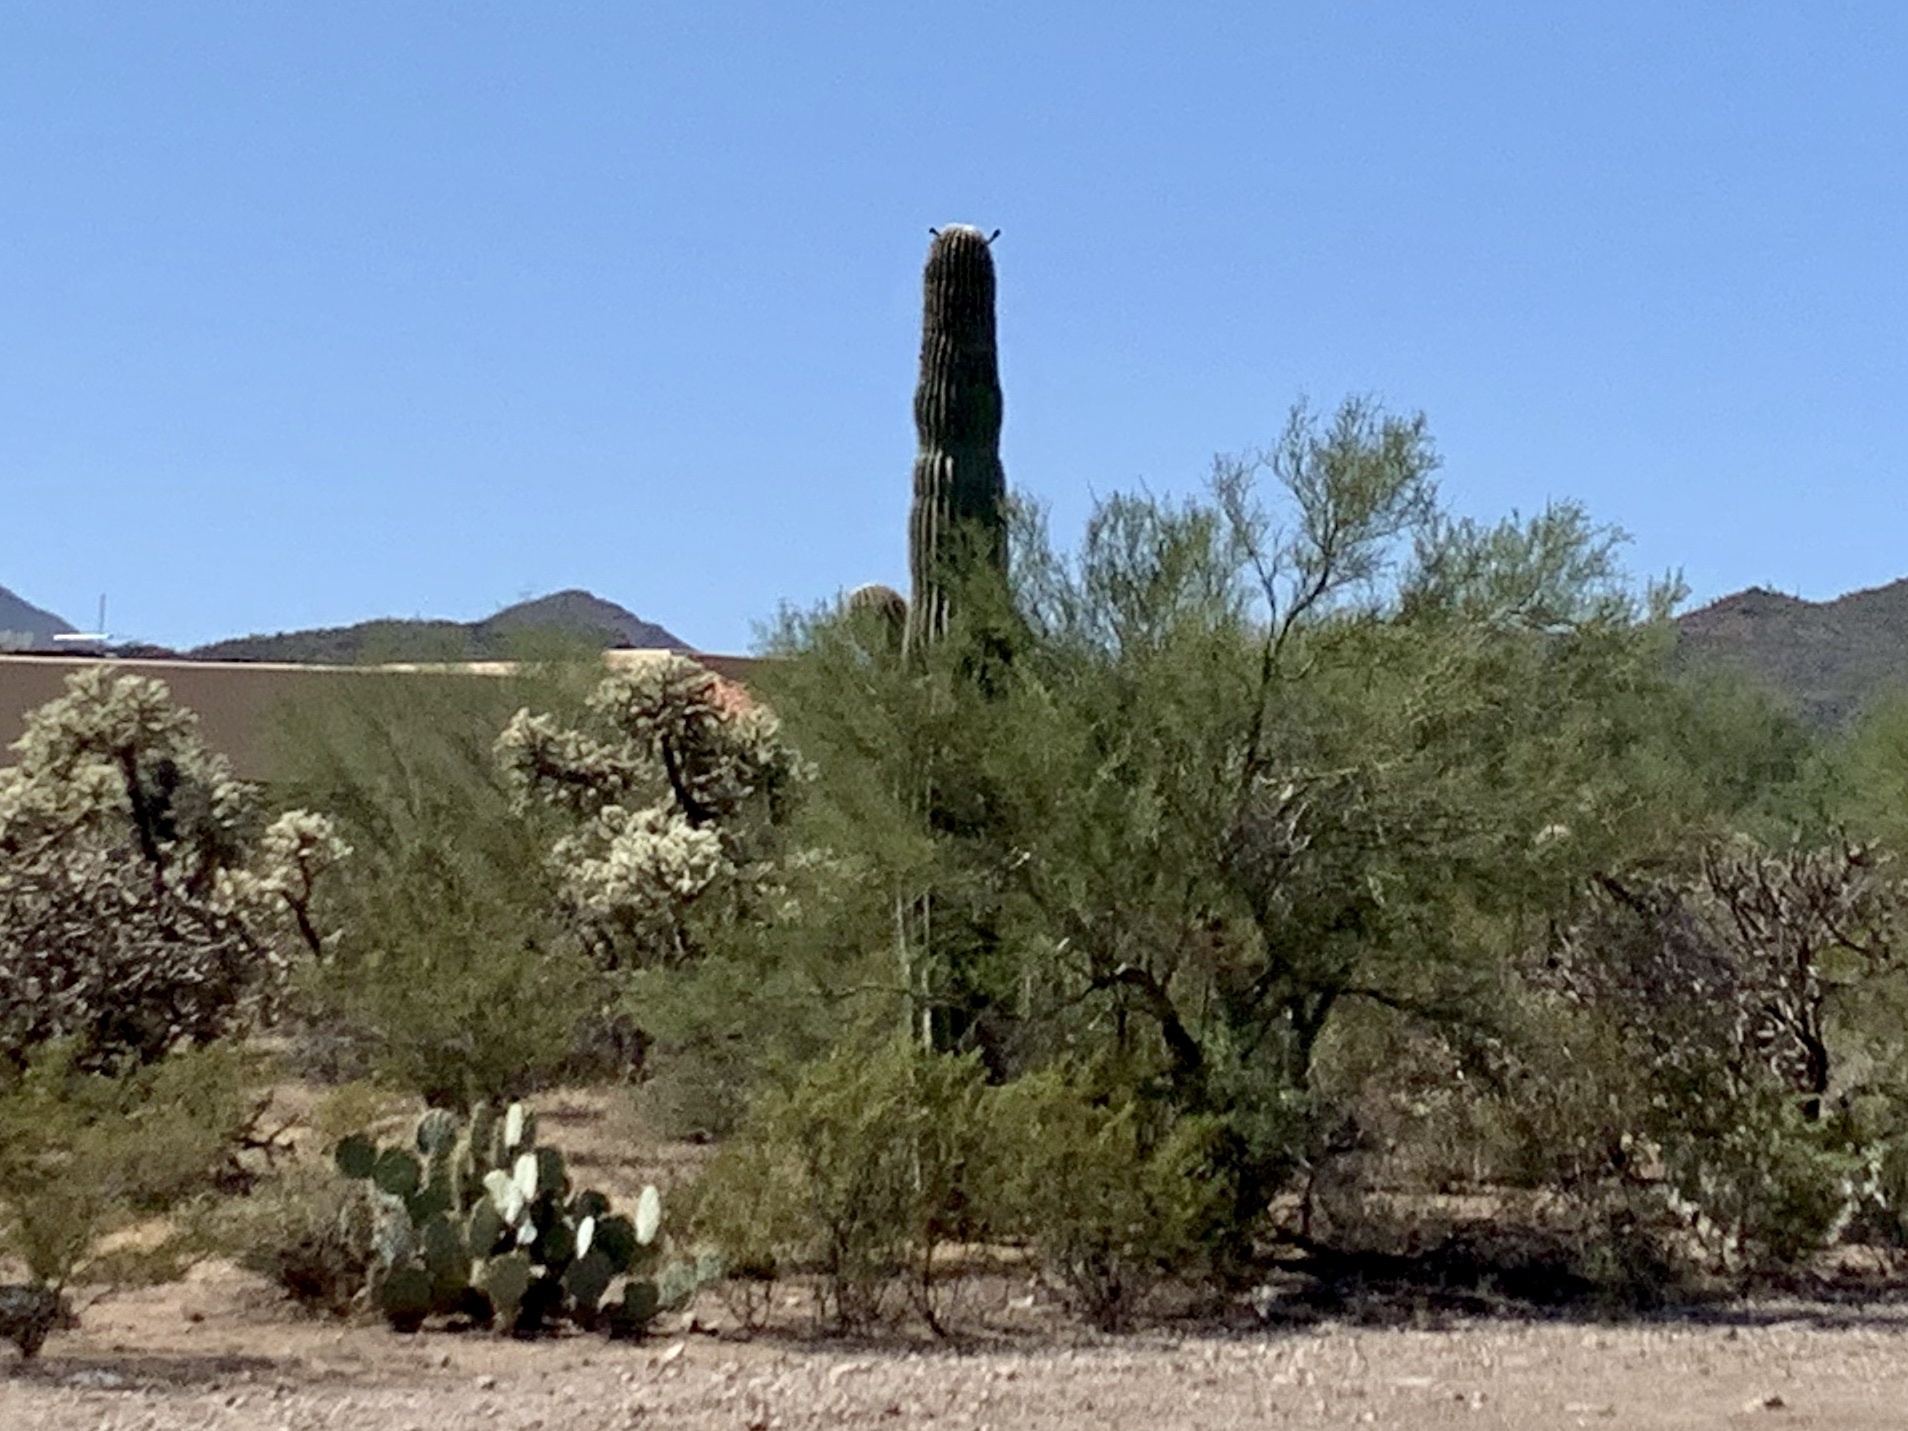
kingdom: Plantae
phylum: Tracheophyta
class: Magnoliopsida
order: Caryophyllales
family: Cactaceae
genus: Carnegiea
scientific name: Carnegiea gigantea
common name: Saguaro
